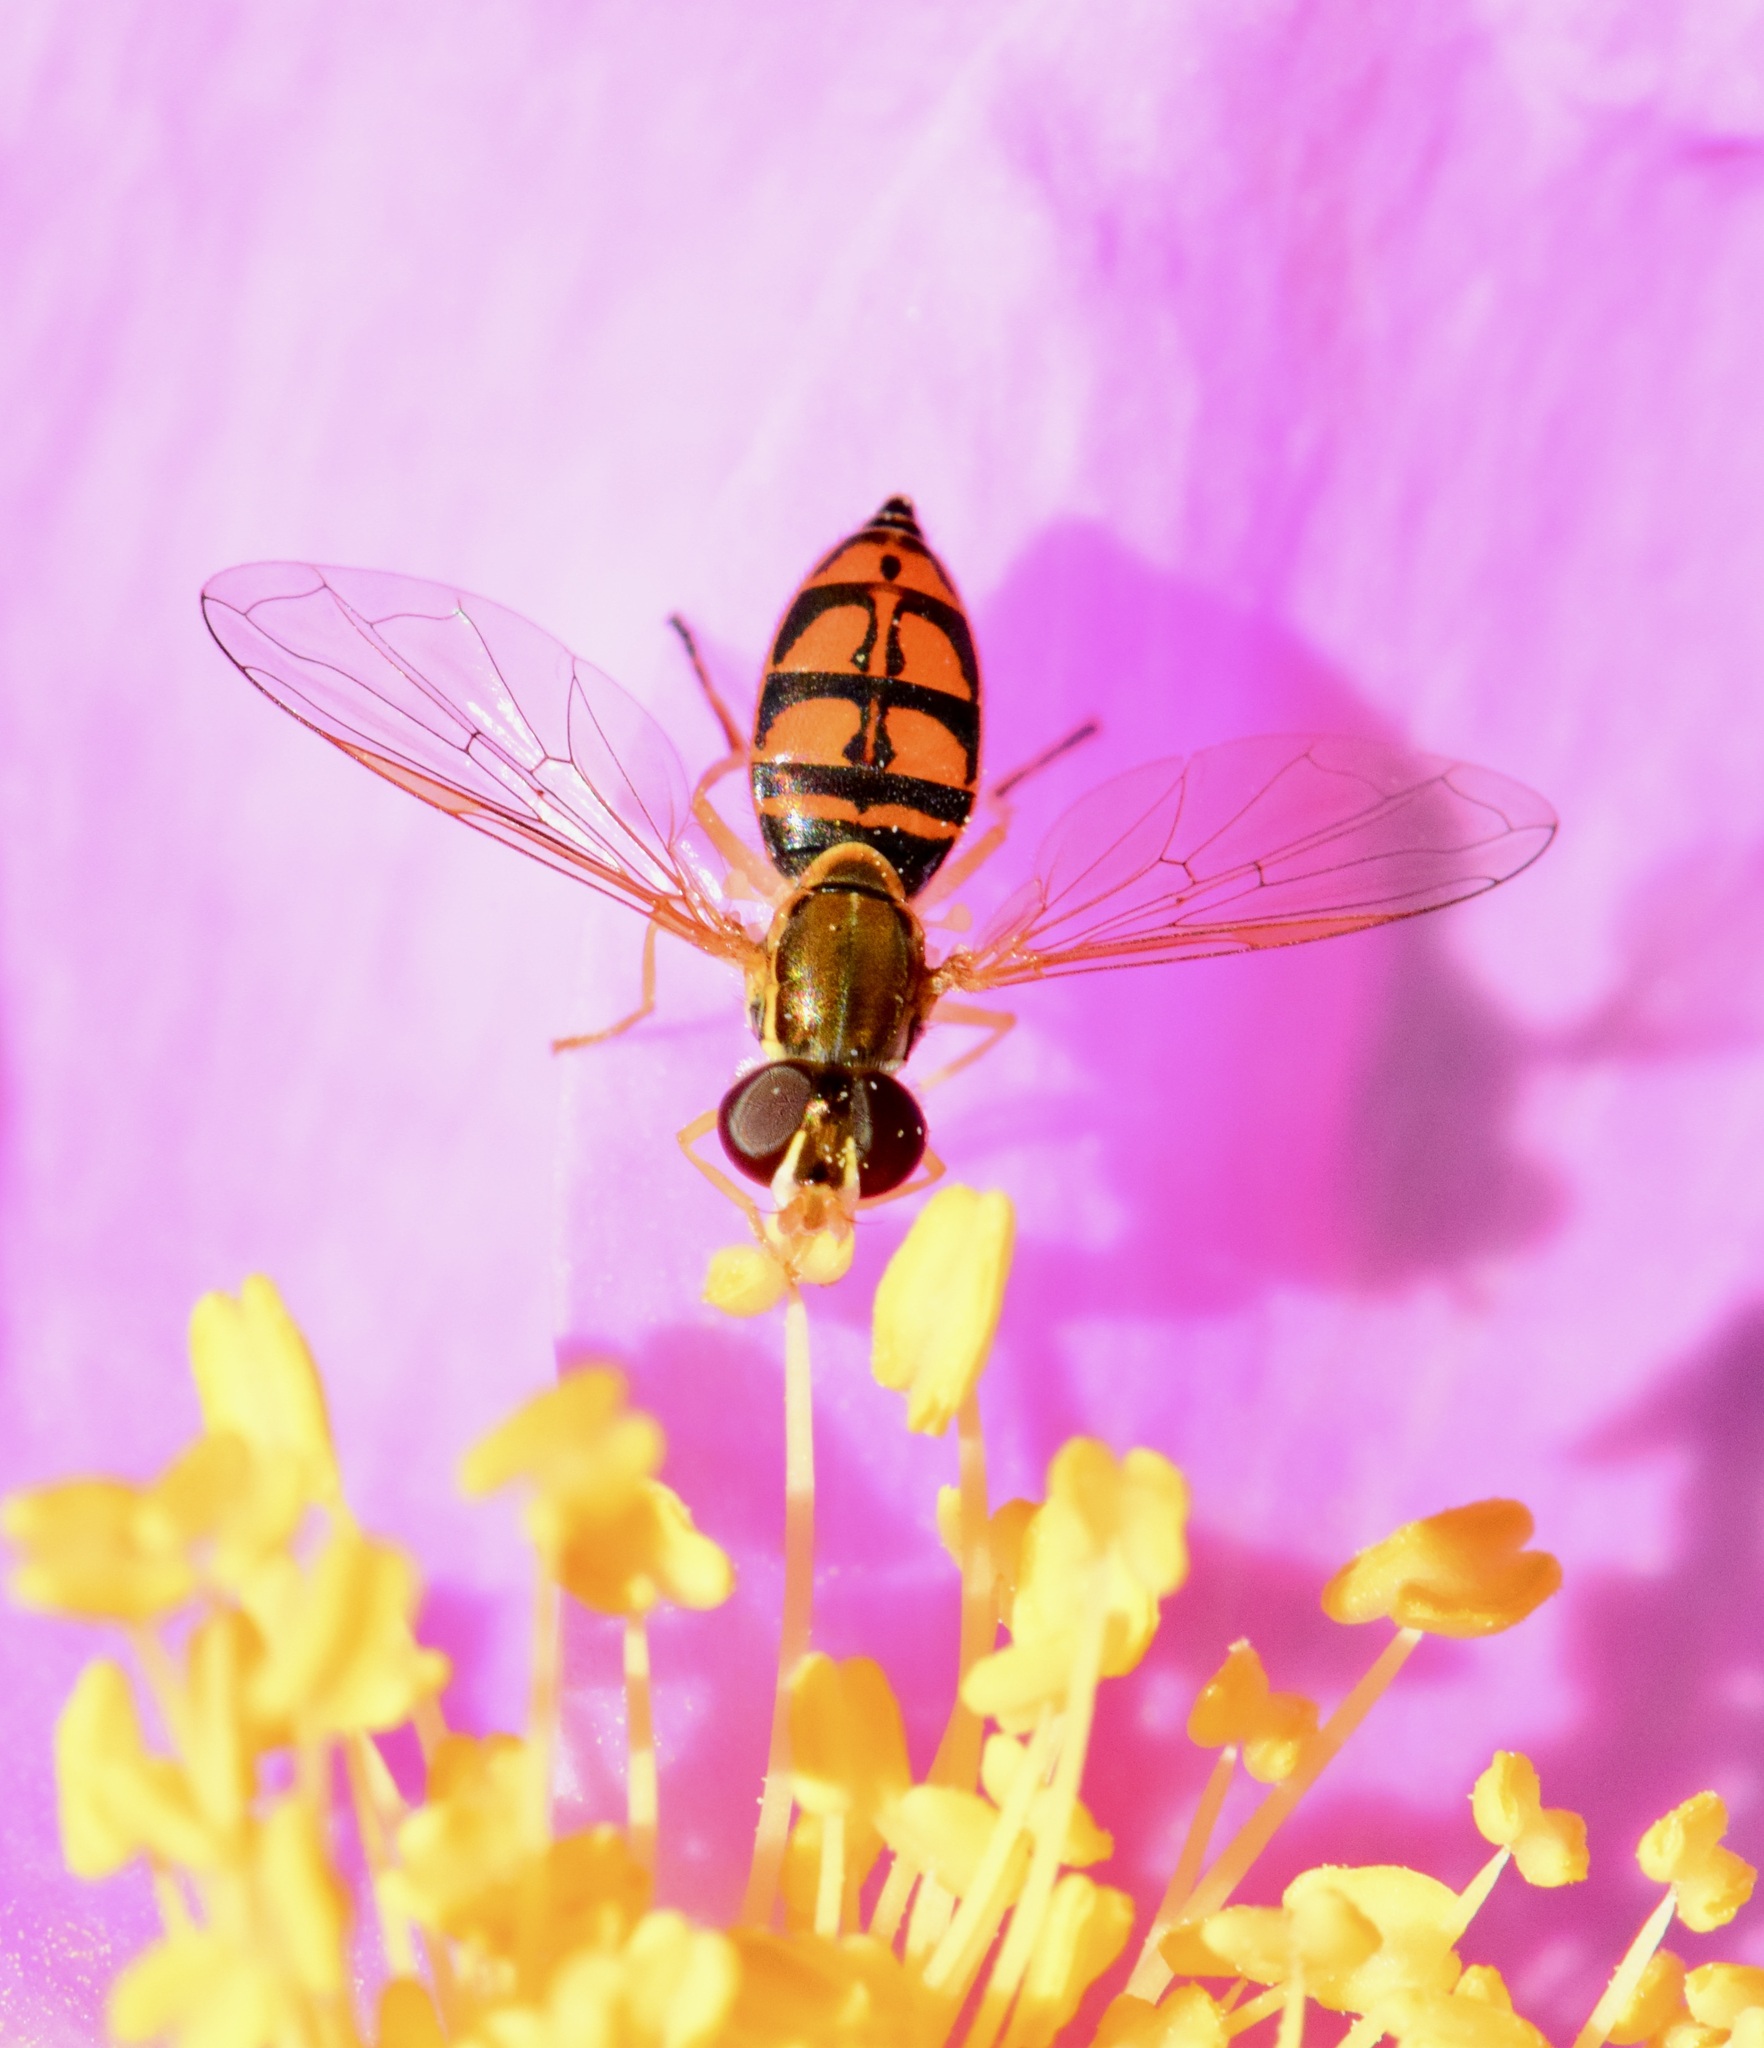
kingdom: Animalia
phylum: Arthropoda
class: Insecta
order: Diptera
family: Syrphidae
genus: Toxomerus
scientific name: Toxomerus marginatus
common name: Syrphid fly
